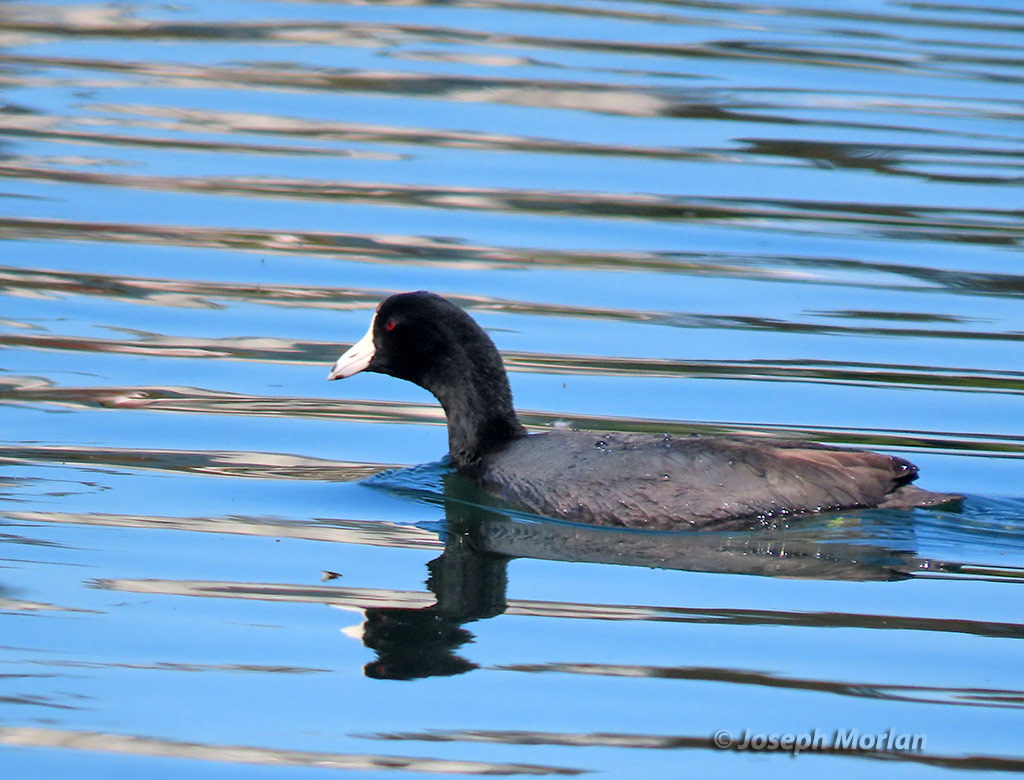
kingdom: Animalia
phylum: Chordata
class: Aves
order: Gruiformes
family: Rallidae
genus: Fulica
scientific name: Fulica americana
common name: American coot
